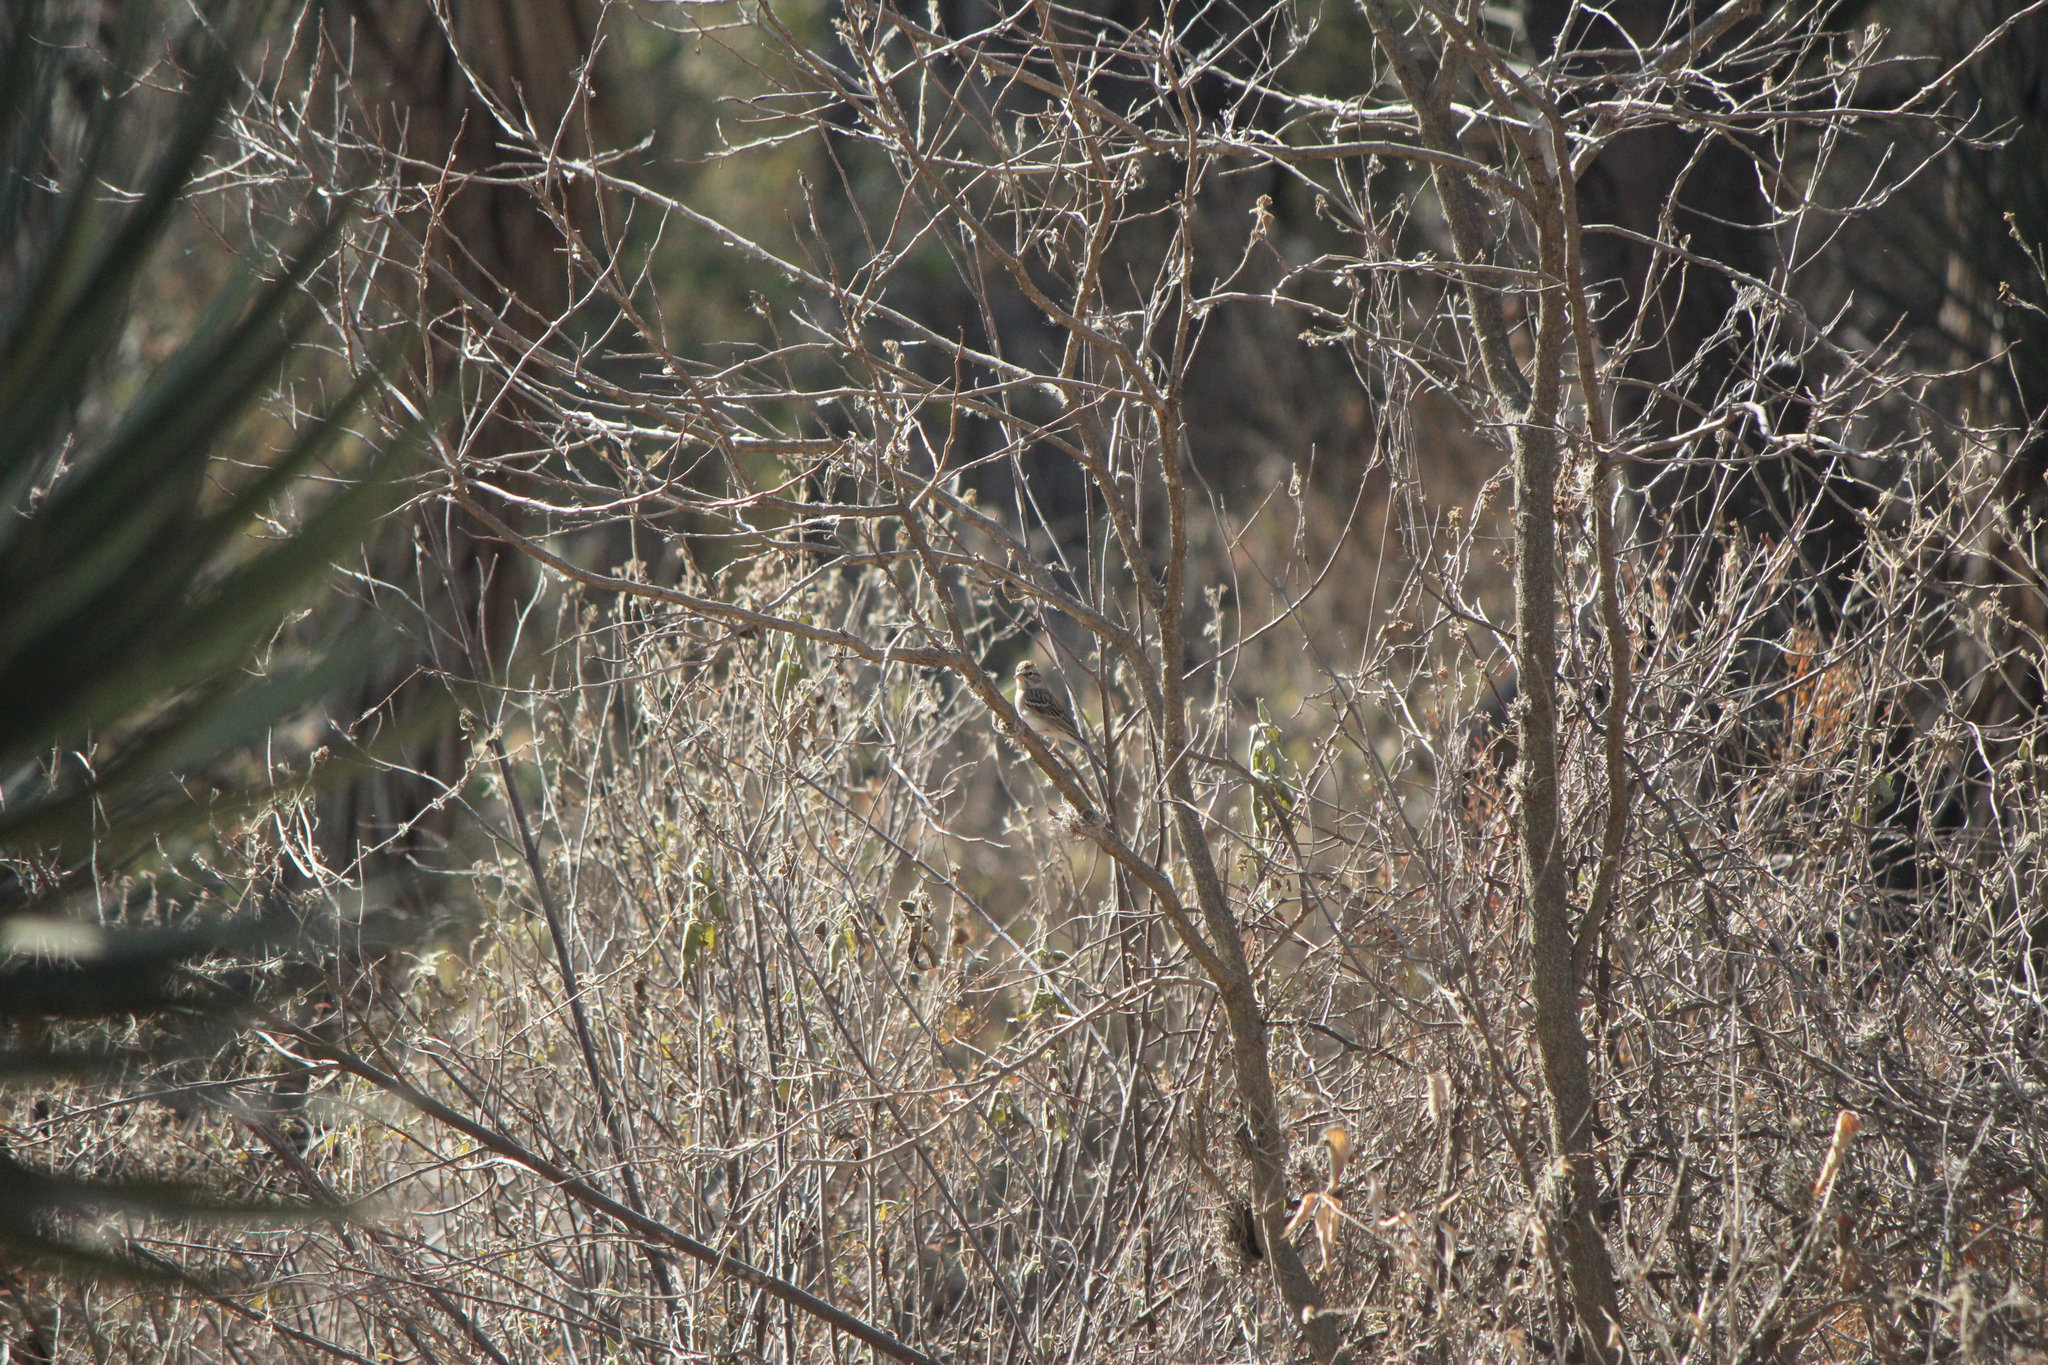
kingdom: Animalia
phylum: Chordata
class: Aves
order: Passeriformes
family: Passerellidae
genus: Spizella
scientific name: Spizella passerina
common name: Chipping sparrow
